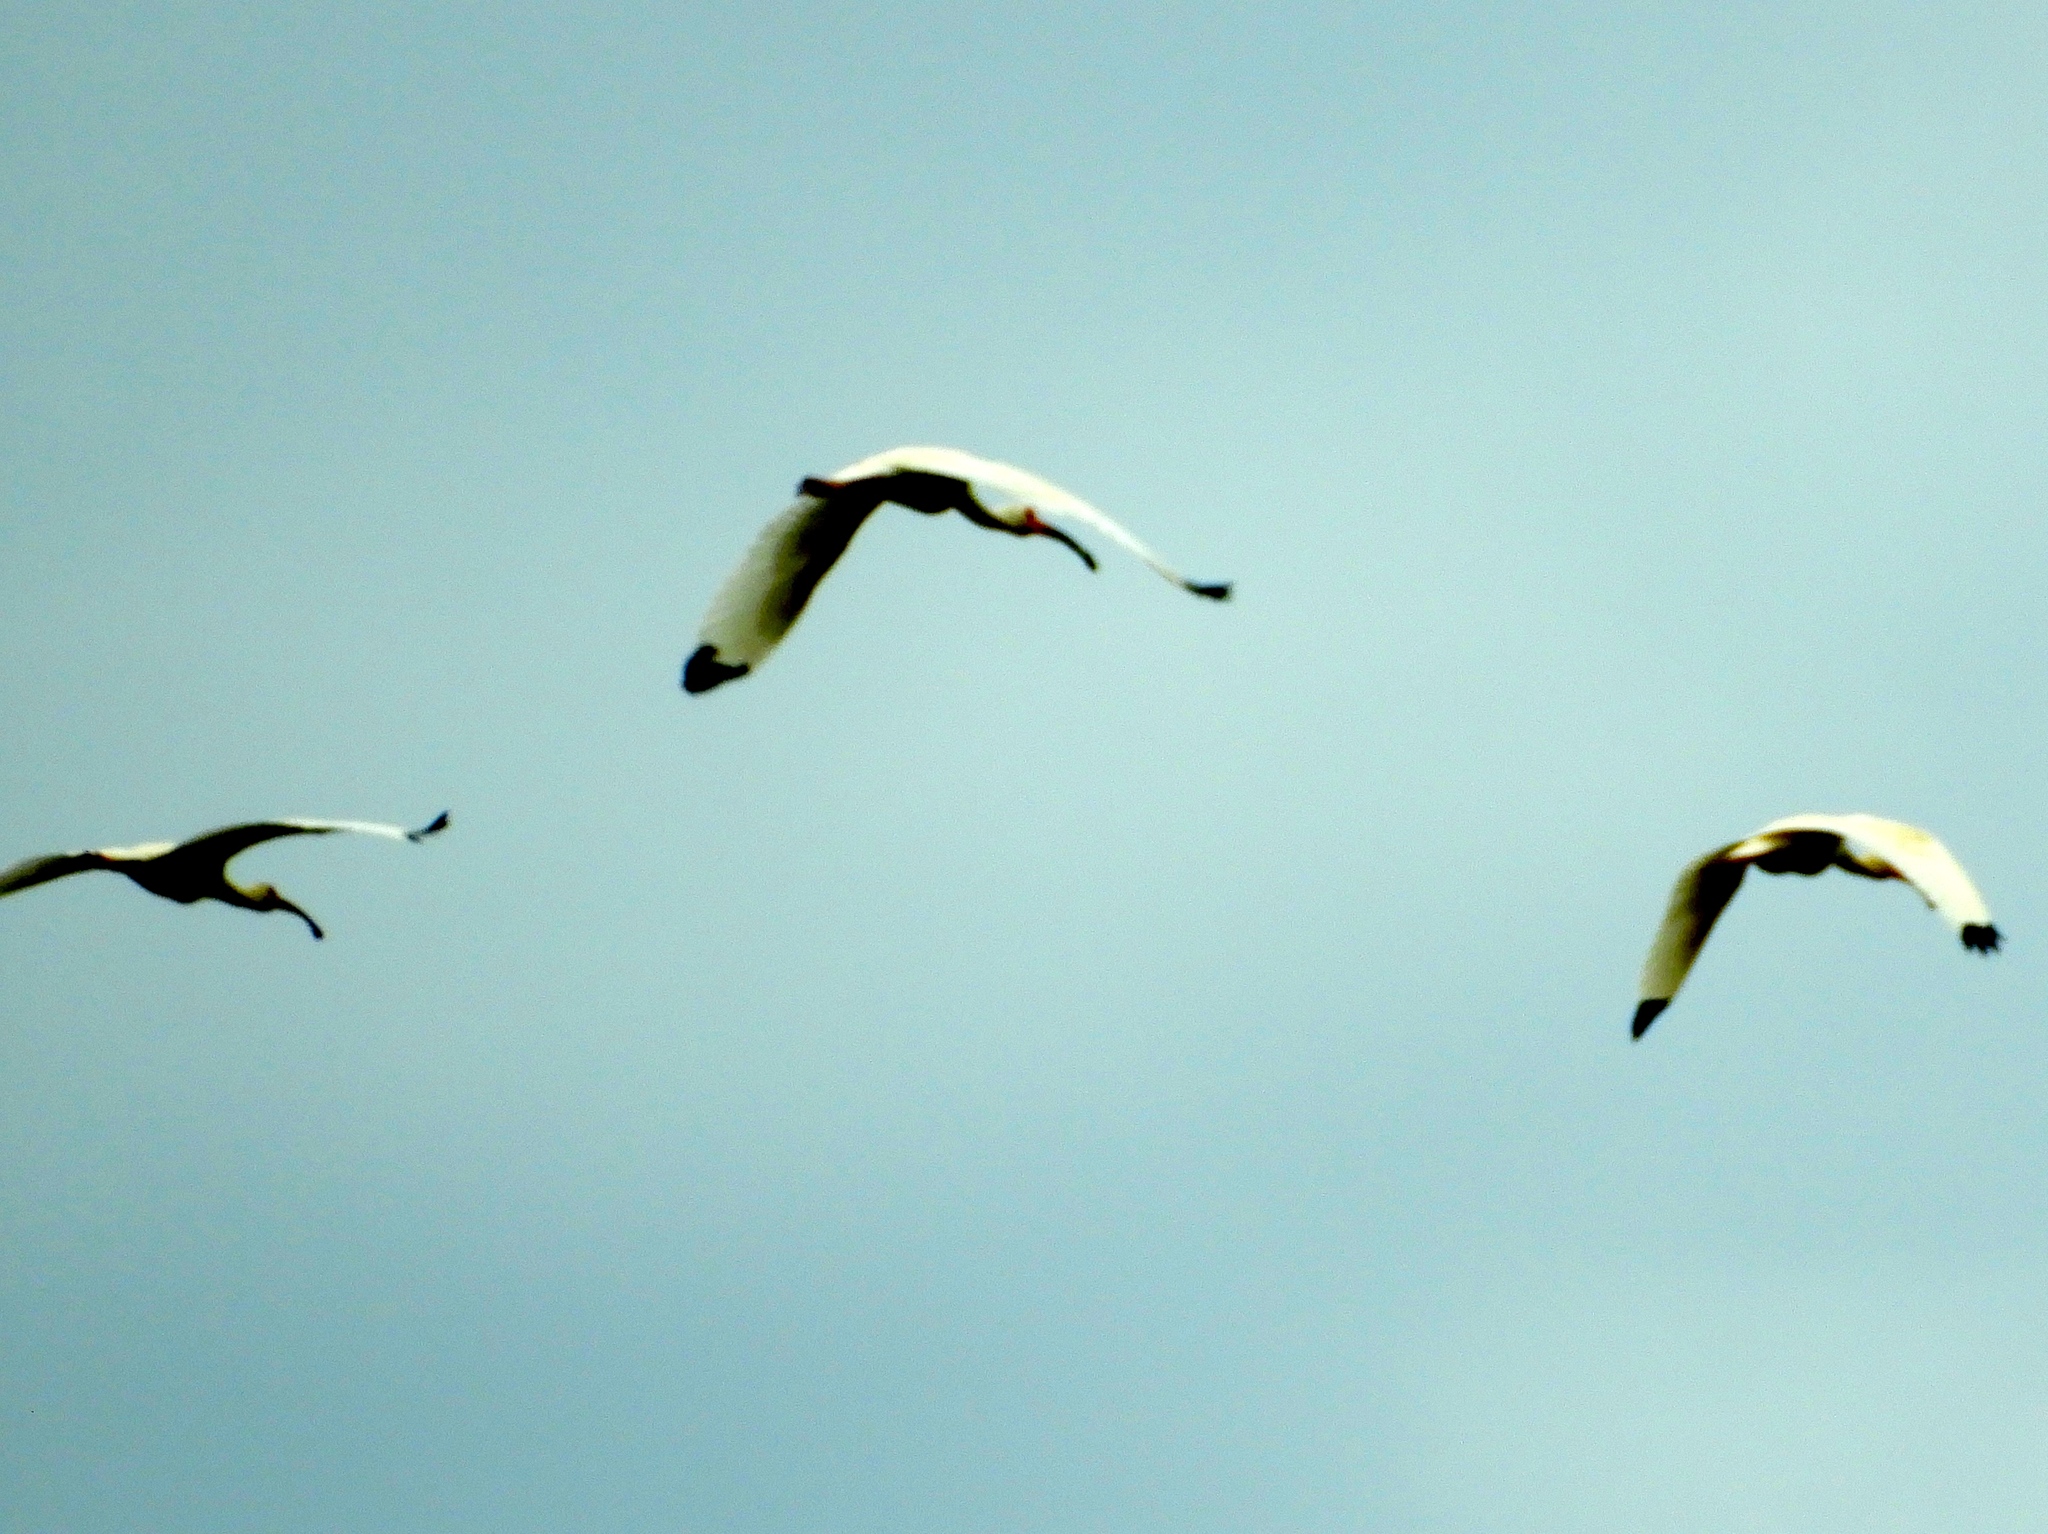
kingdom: Animalia
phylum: Chordata
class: Aves
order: Pelecaniformes
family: Threskiornithidae
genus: Eudocimus
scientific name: Eudocimus albus
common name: White ibis
